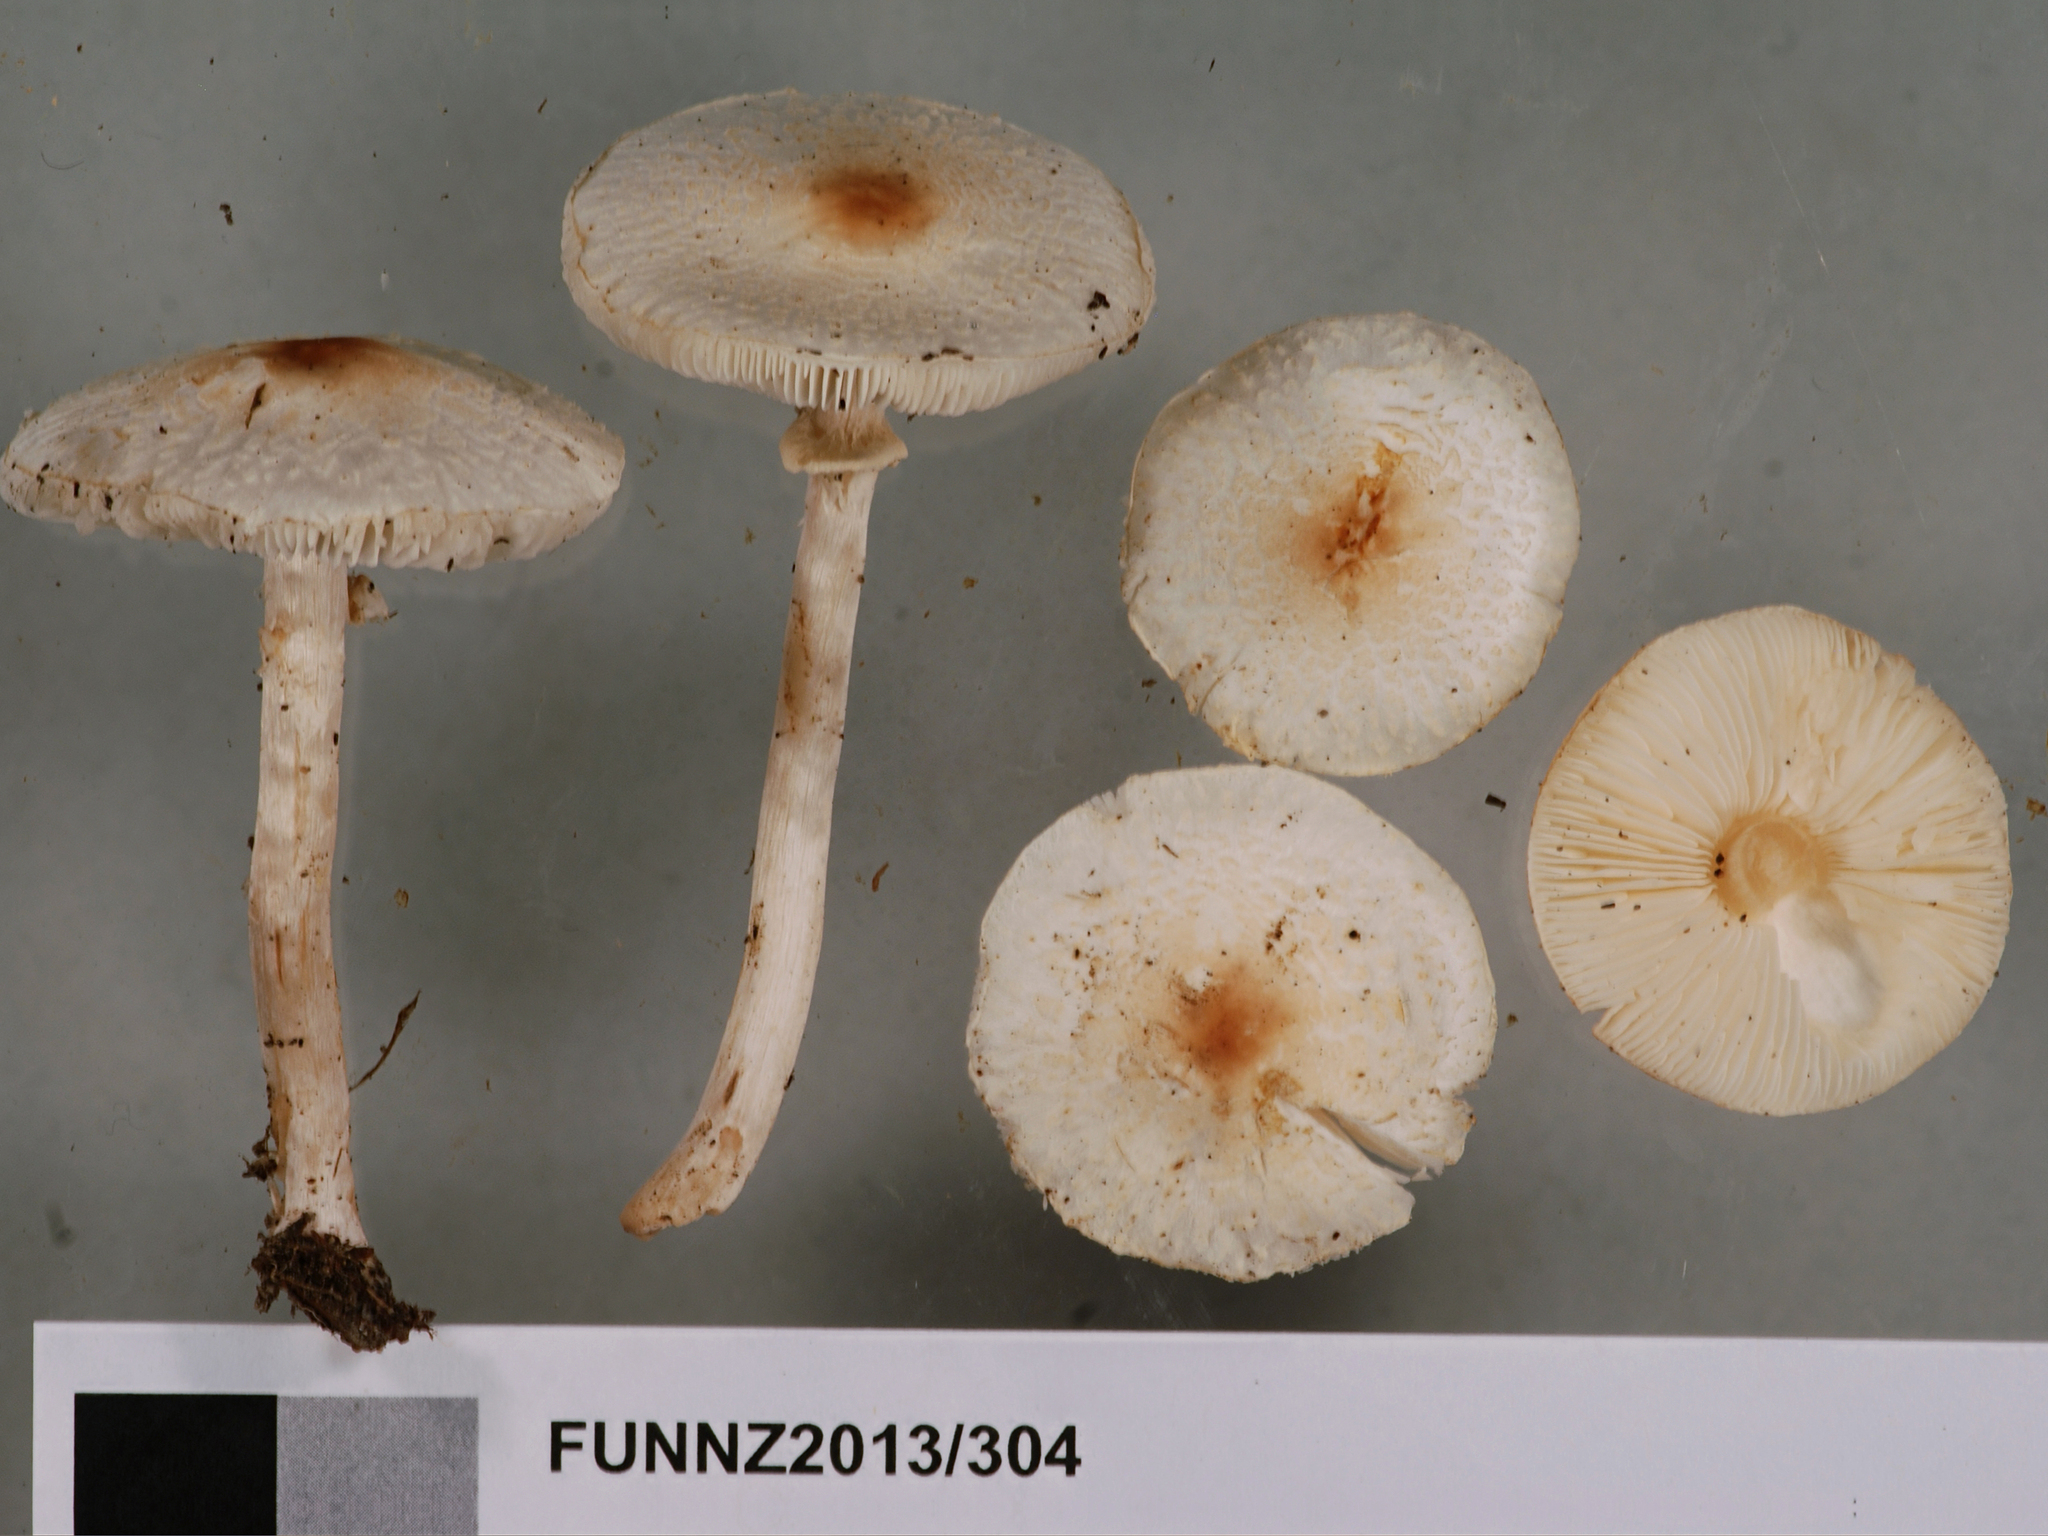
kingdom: Fungi
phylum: Basidiomycota
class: Agaricomycetes
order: Agaricales
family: Agaricaceae
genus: Lepiota
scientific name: Lepiota cristata
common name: Stinking dapperling
